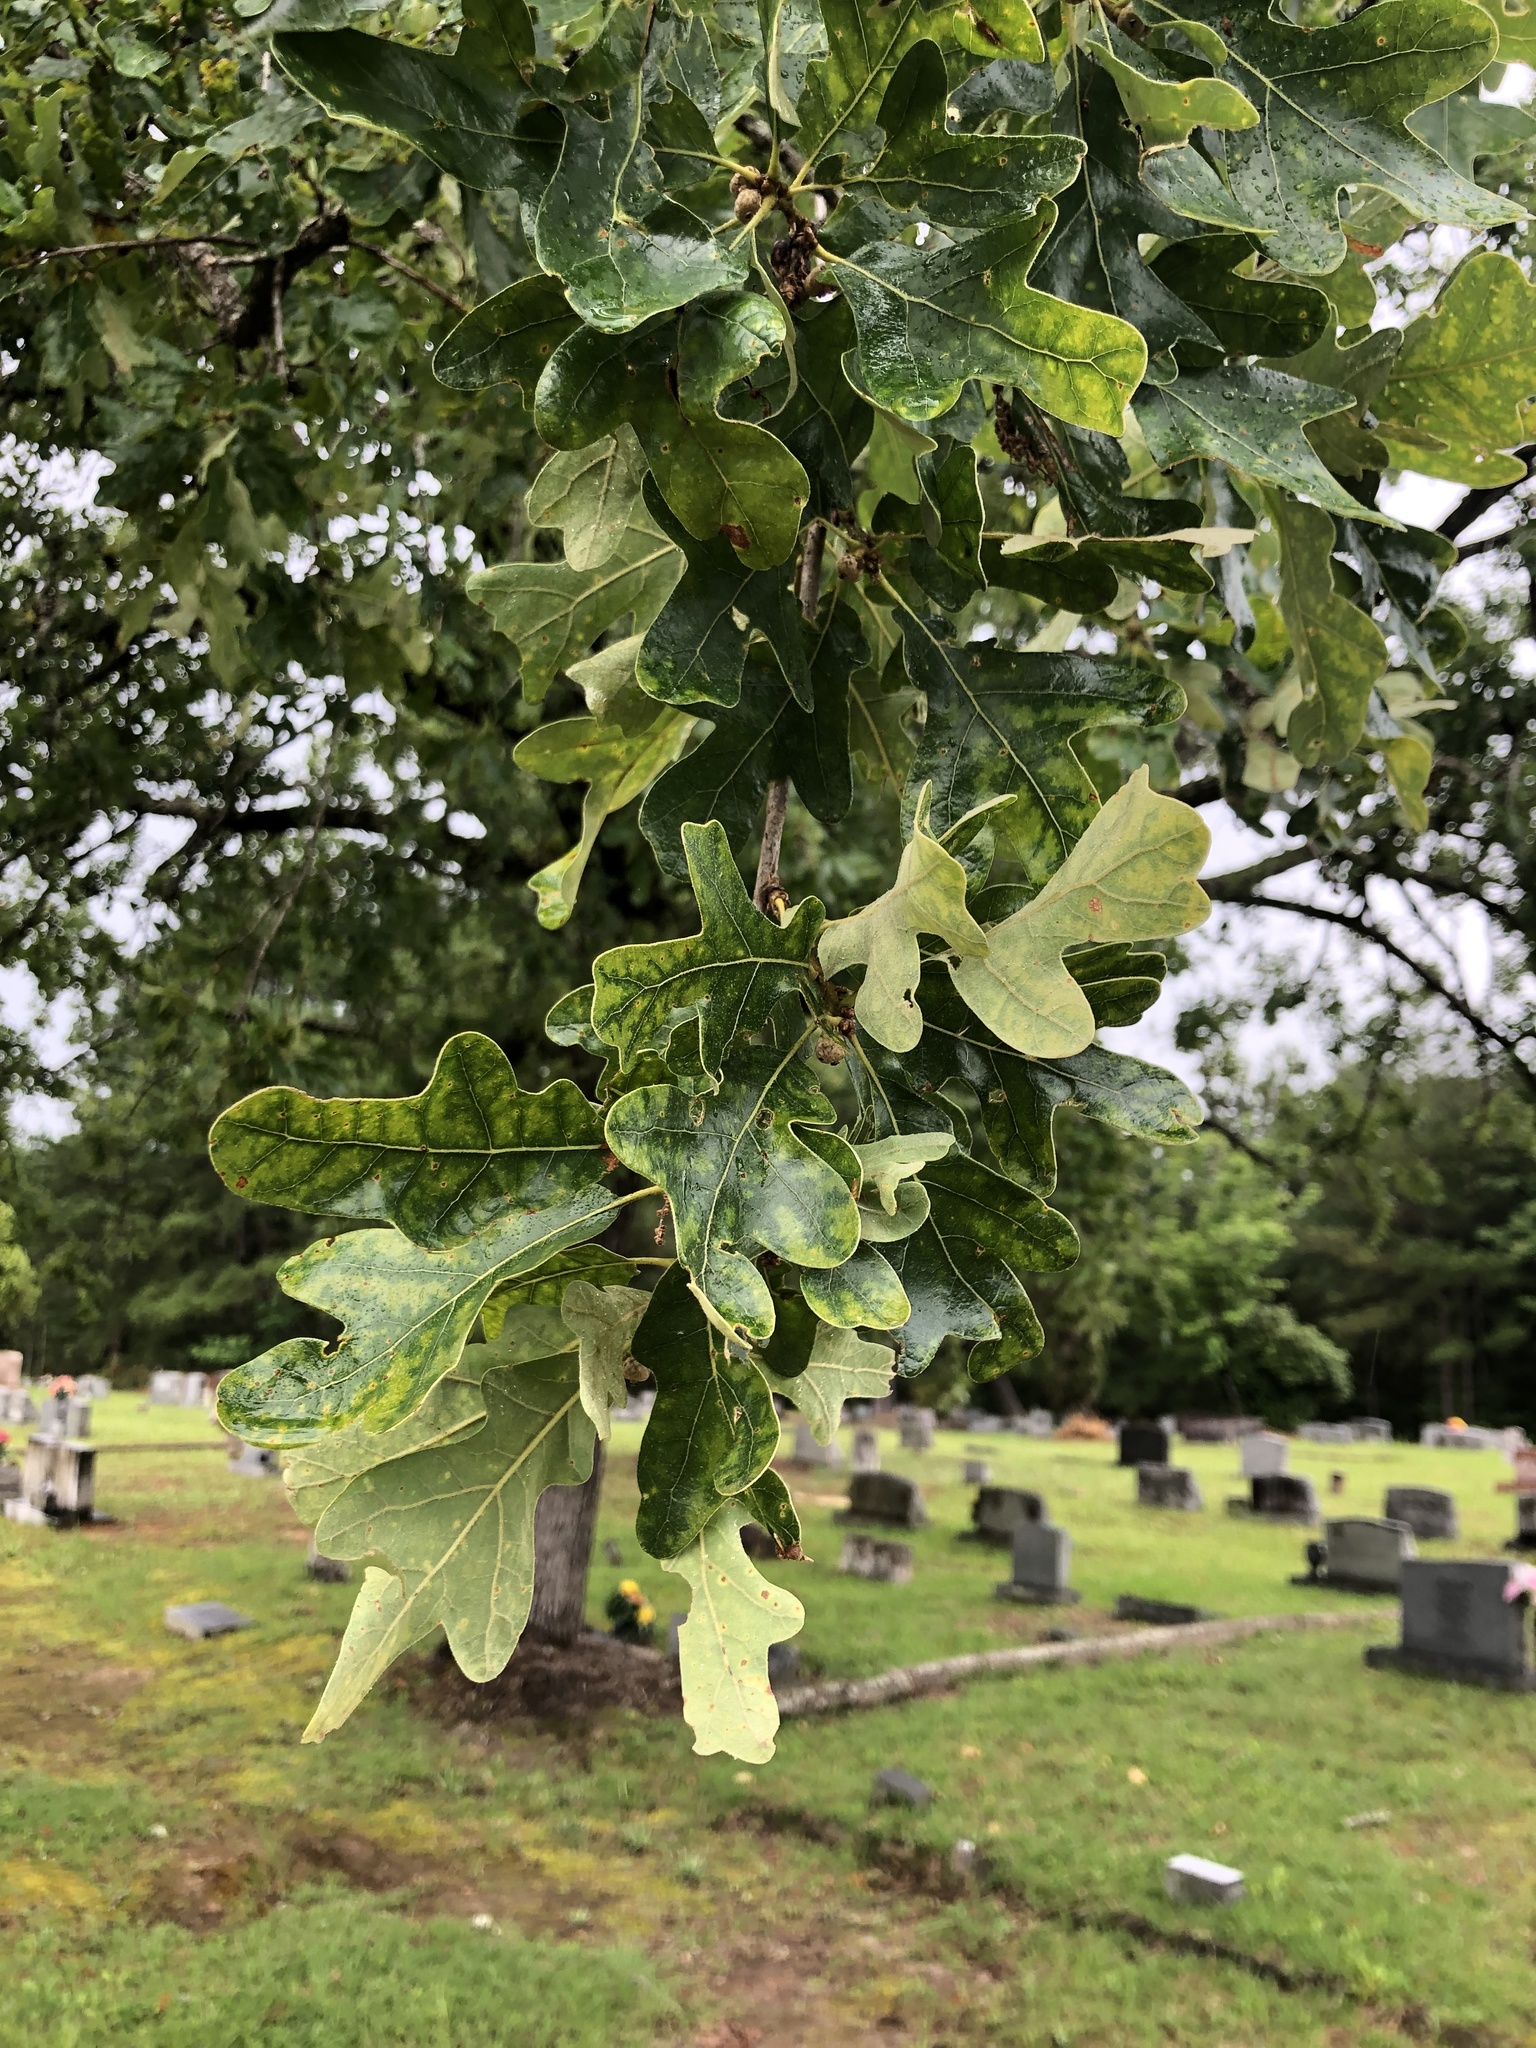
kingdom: Plantae
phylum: Tracheophyta
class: Magnoliopsida
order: Fagales
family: Fagaceae
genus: Quercus
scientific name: Quercus margaretiae
